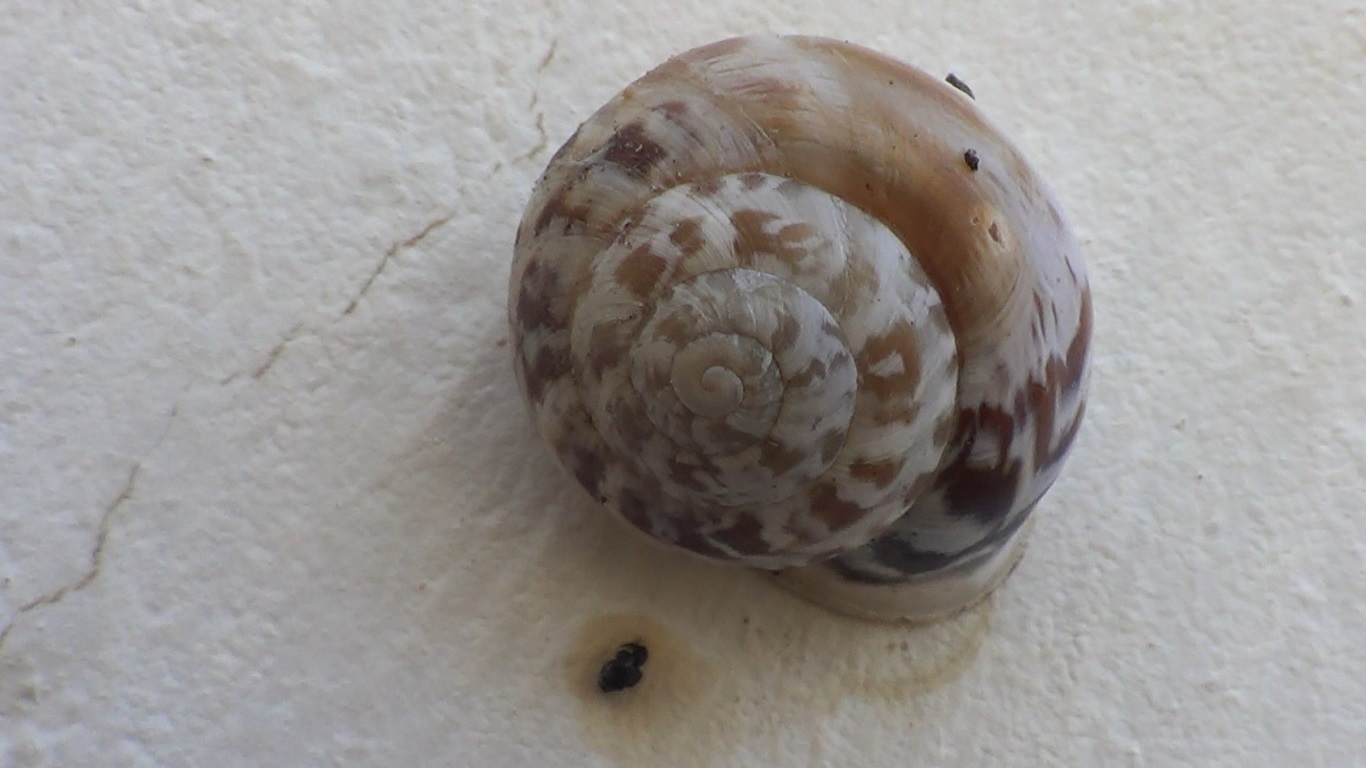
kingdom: Animalia
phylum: Mollusca
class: Gastropoda
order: Stylommatophora
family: Helicidae
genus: Marmorana
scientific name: Marmorana muralis
